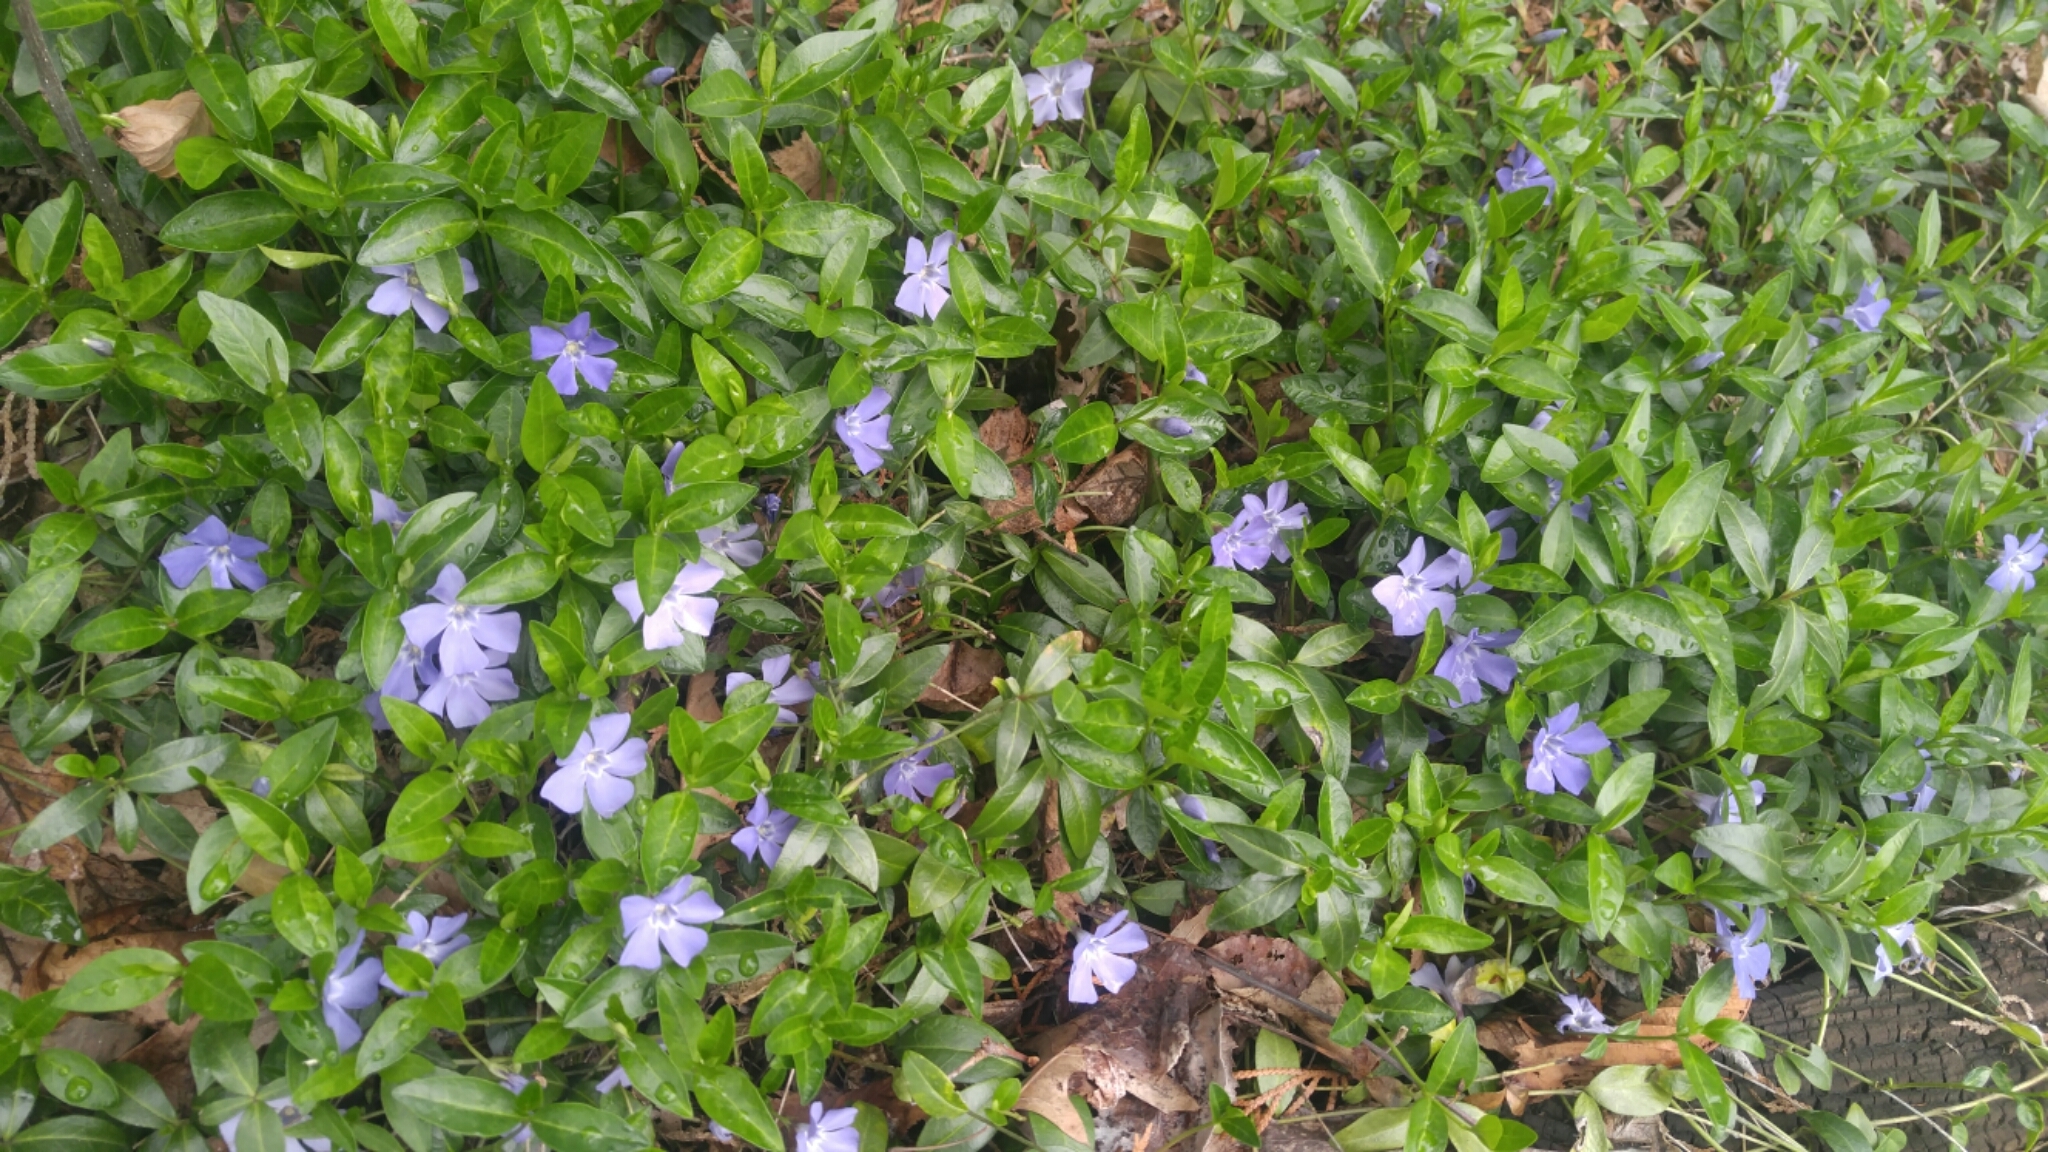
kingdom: Plantae
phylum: Tracheophyta
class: Magnoliopsida
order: Gentianales
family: Apocynaceae
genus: Vinca
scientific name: Vinca minor
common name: Lesser periwinkle
